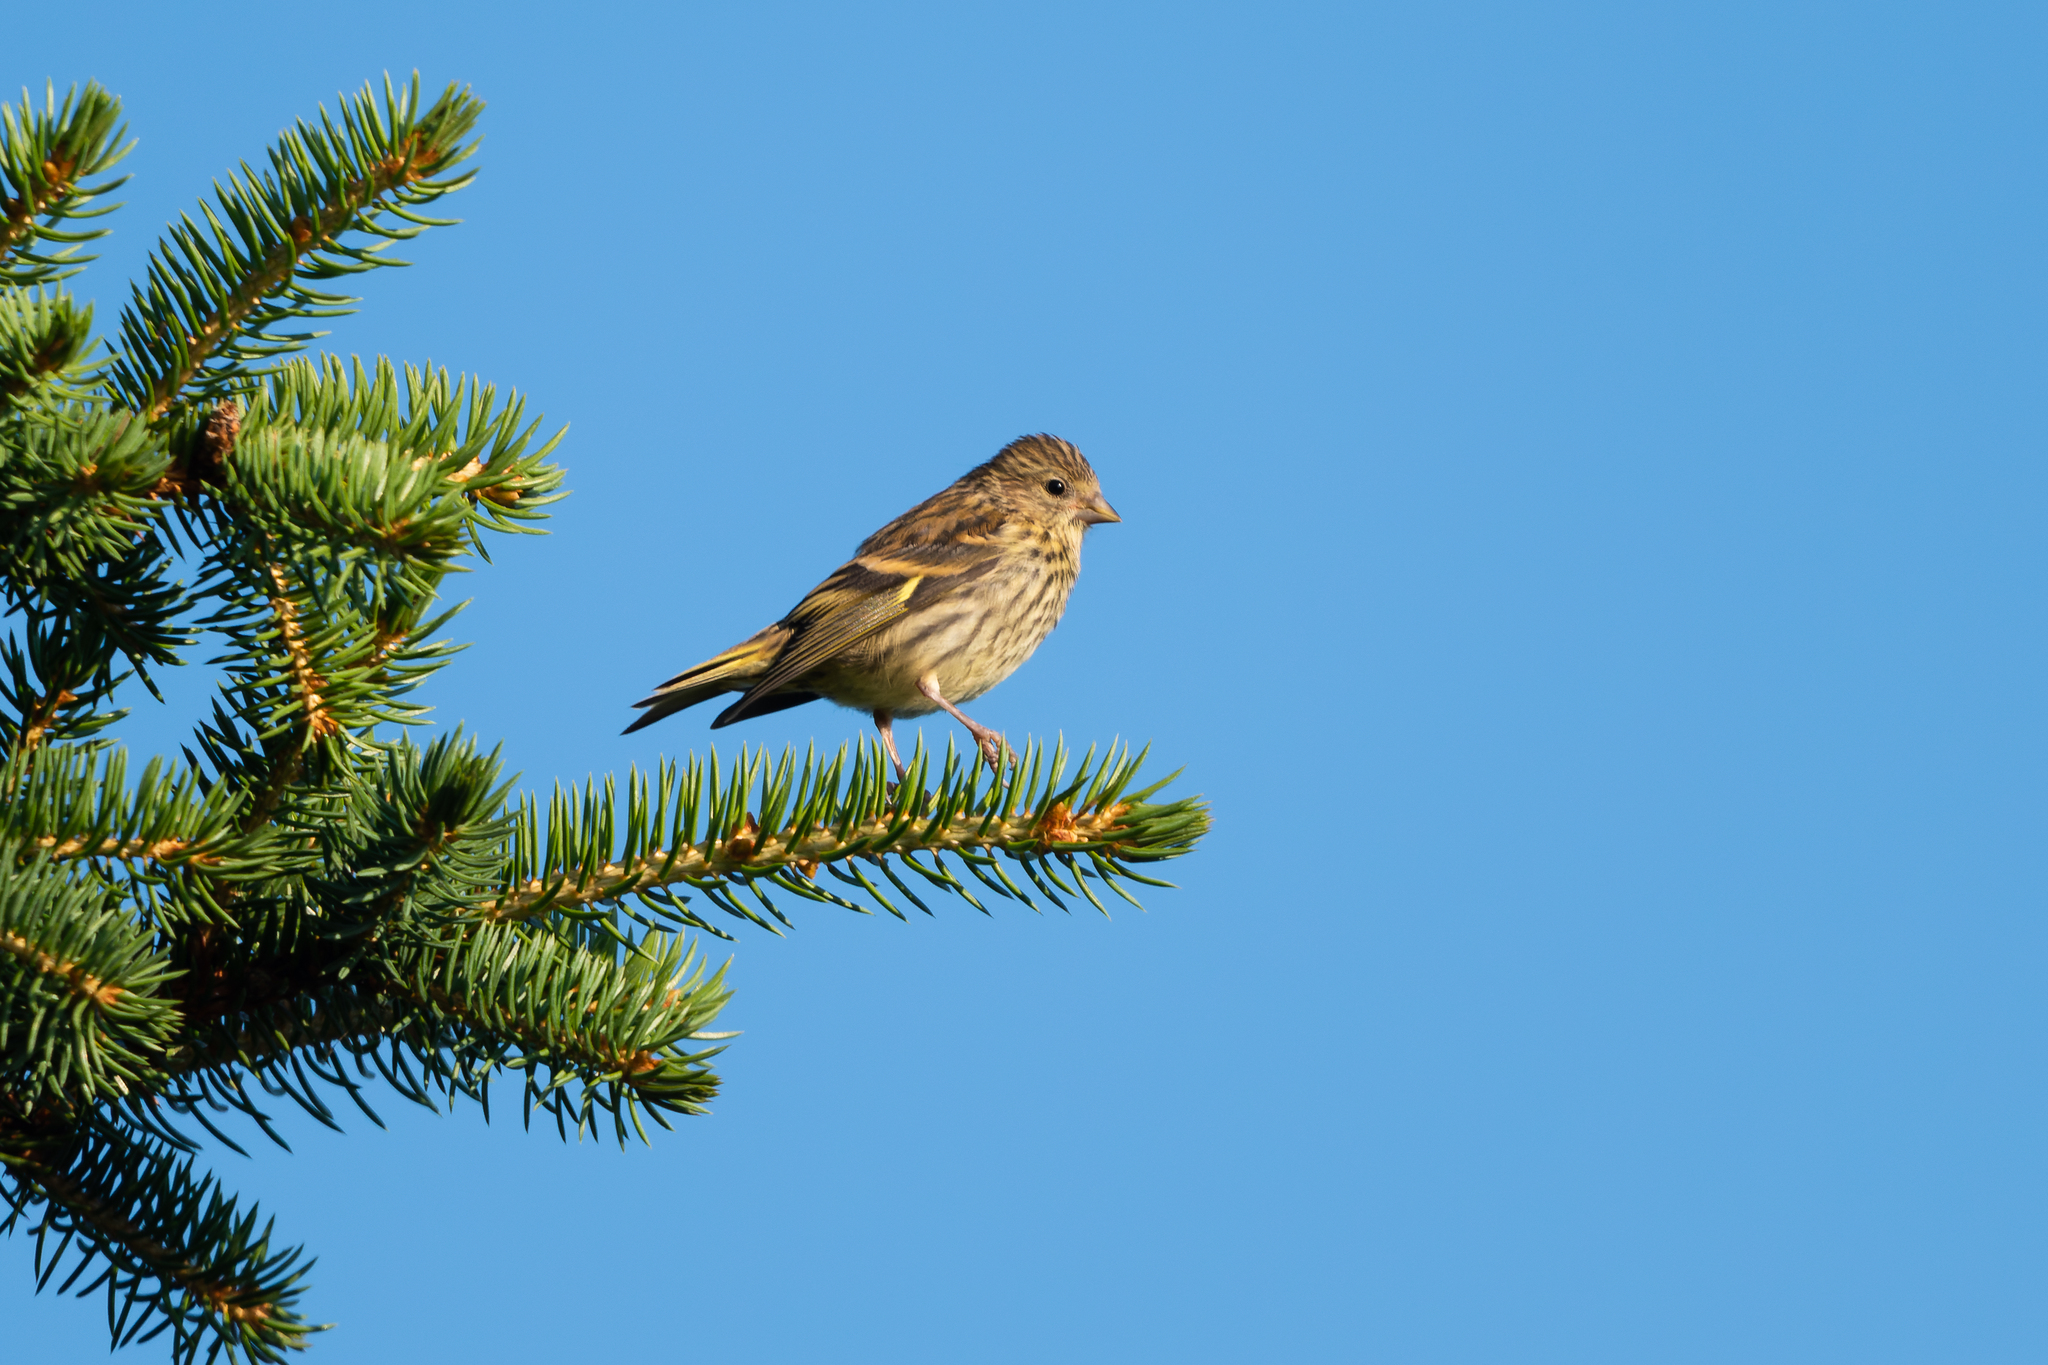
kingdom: Animalia
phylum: Chordata
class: Aves
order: Passeriformes
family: Fringillidae
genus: Spinus
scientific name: Spinus spinus
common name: Eurasian siskin
